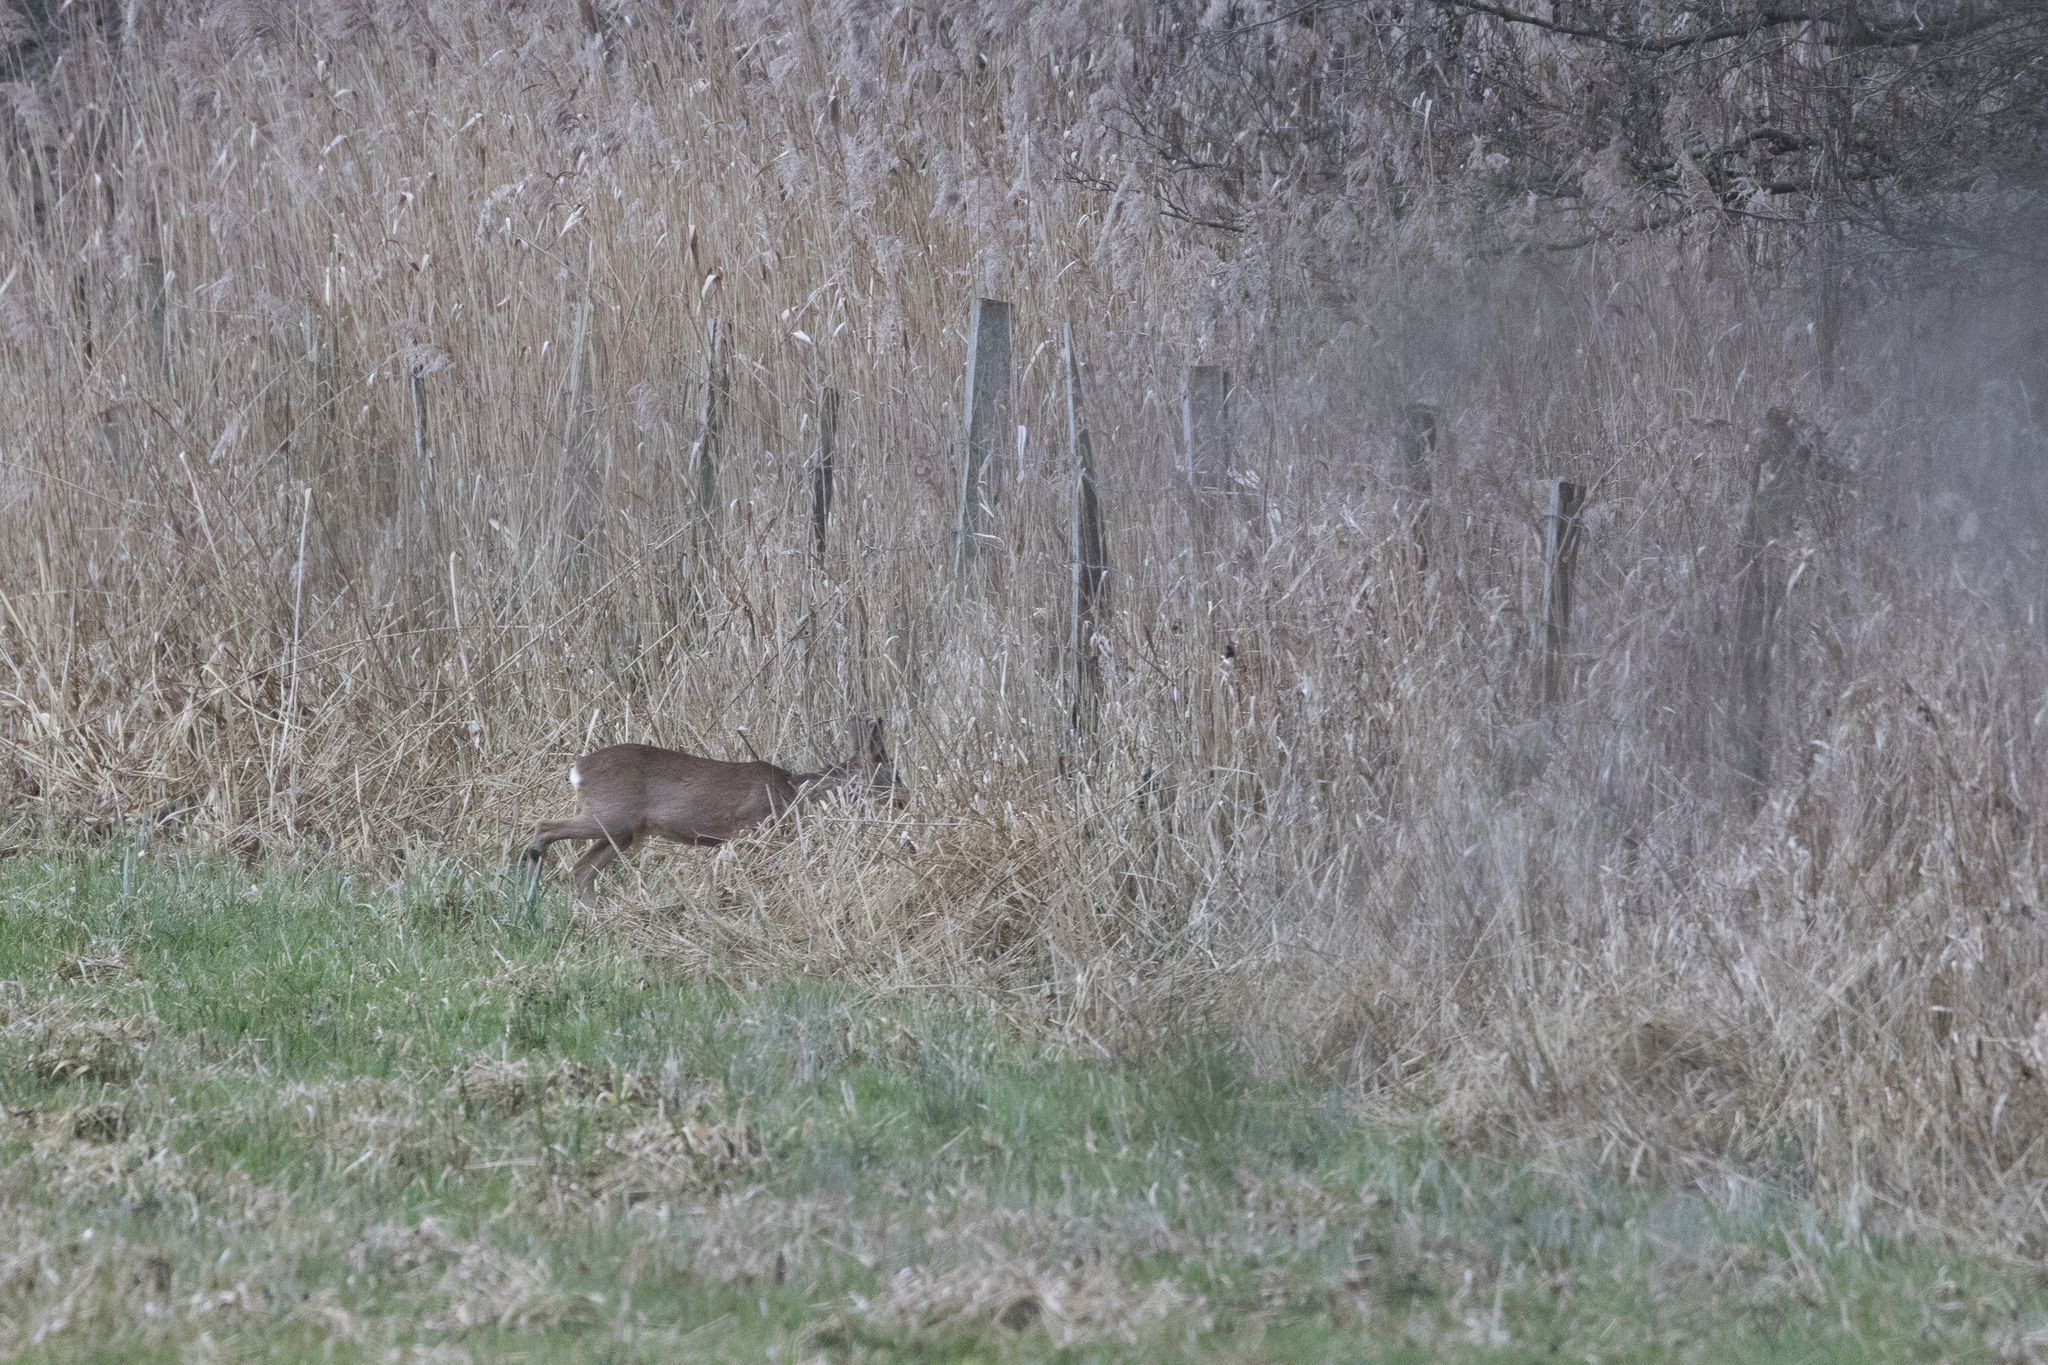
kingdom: Animalia
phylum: Chordata
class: Mammalia
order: Artiodactyla
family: Cervidae
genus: Capreolus
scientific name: Capreolus capreolus
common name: Western roe deer
